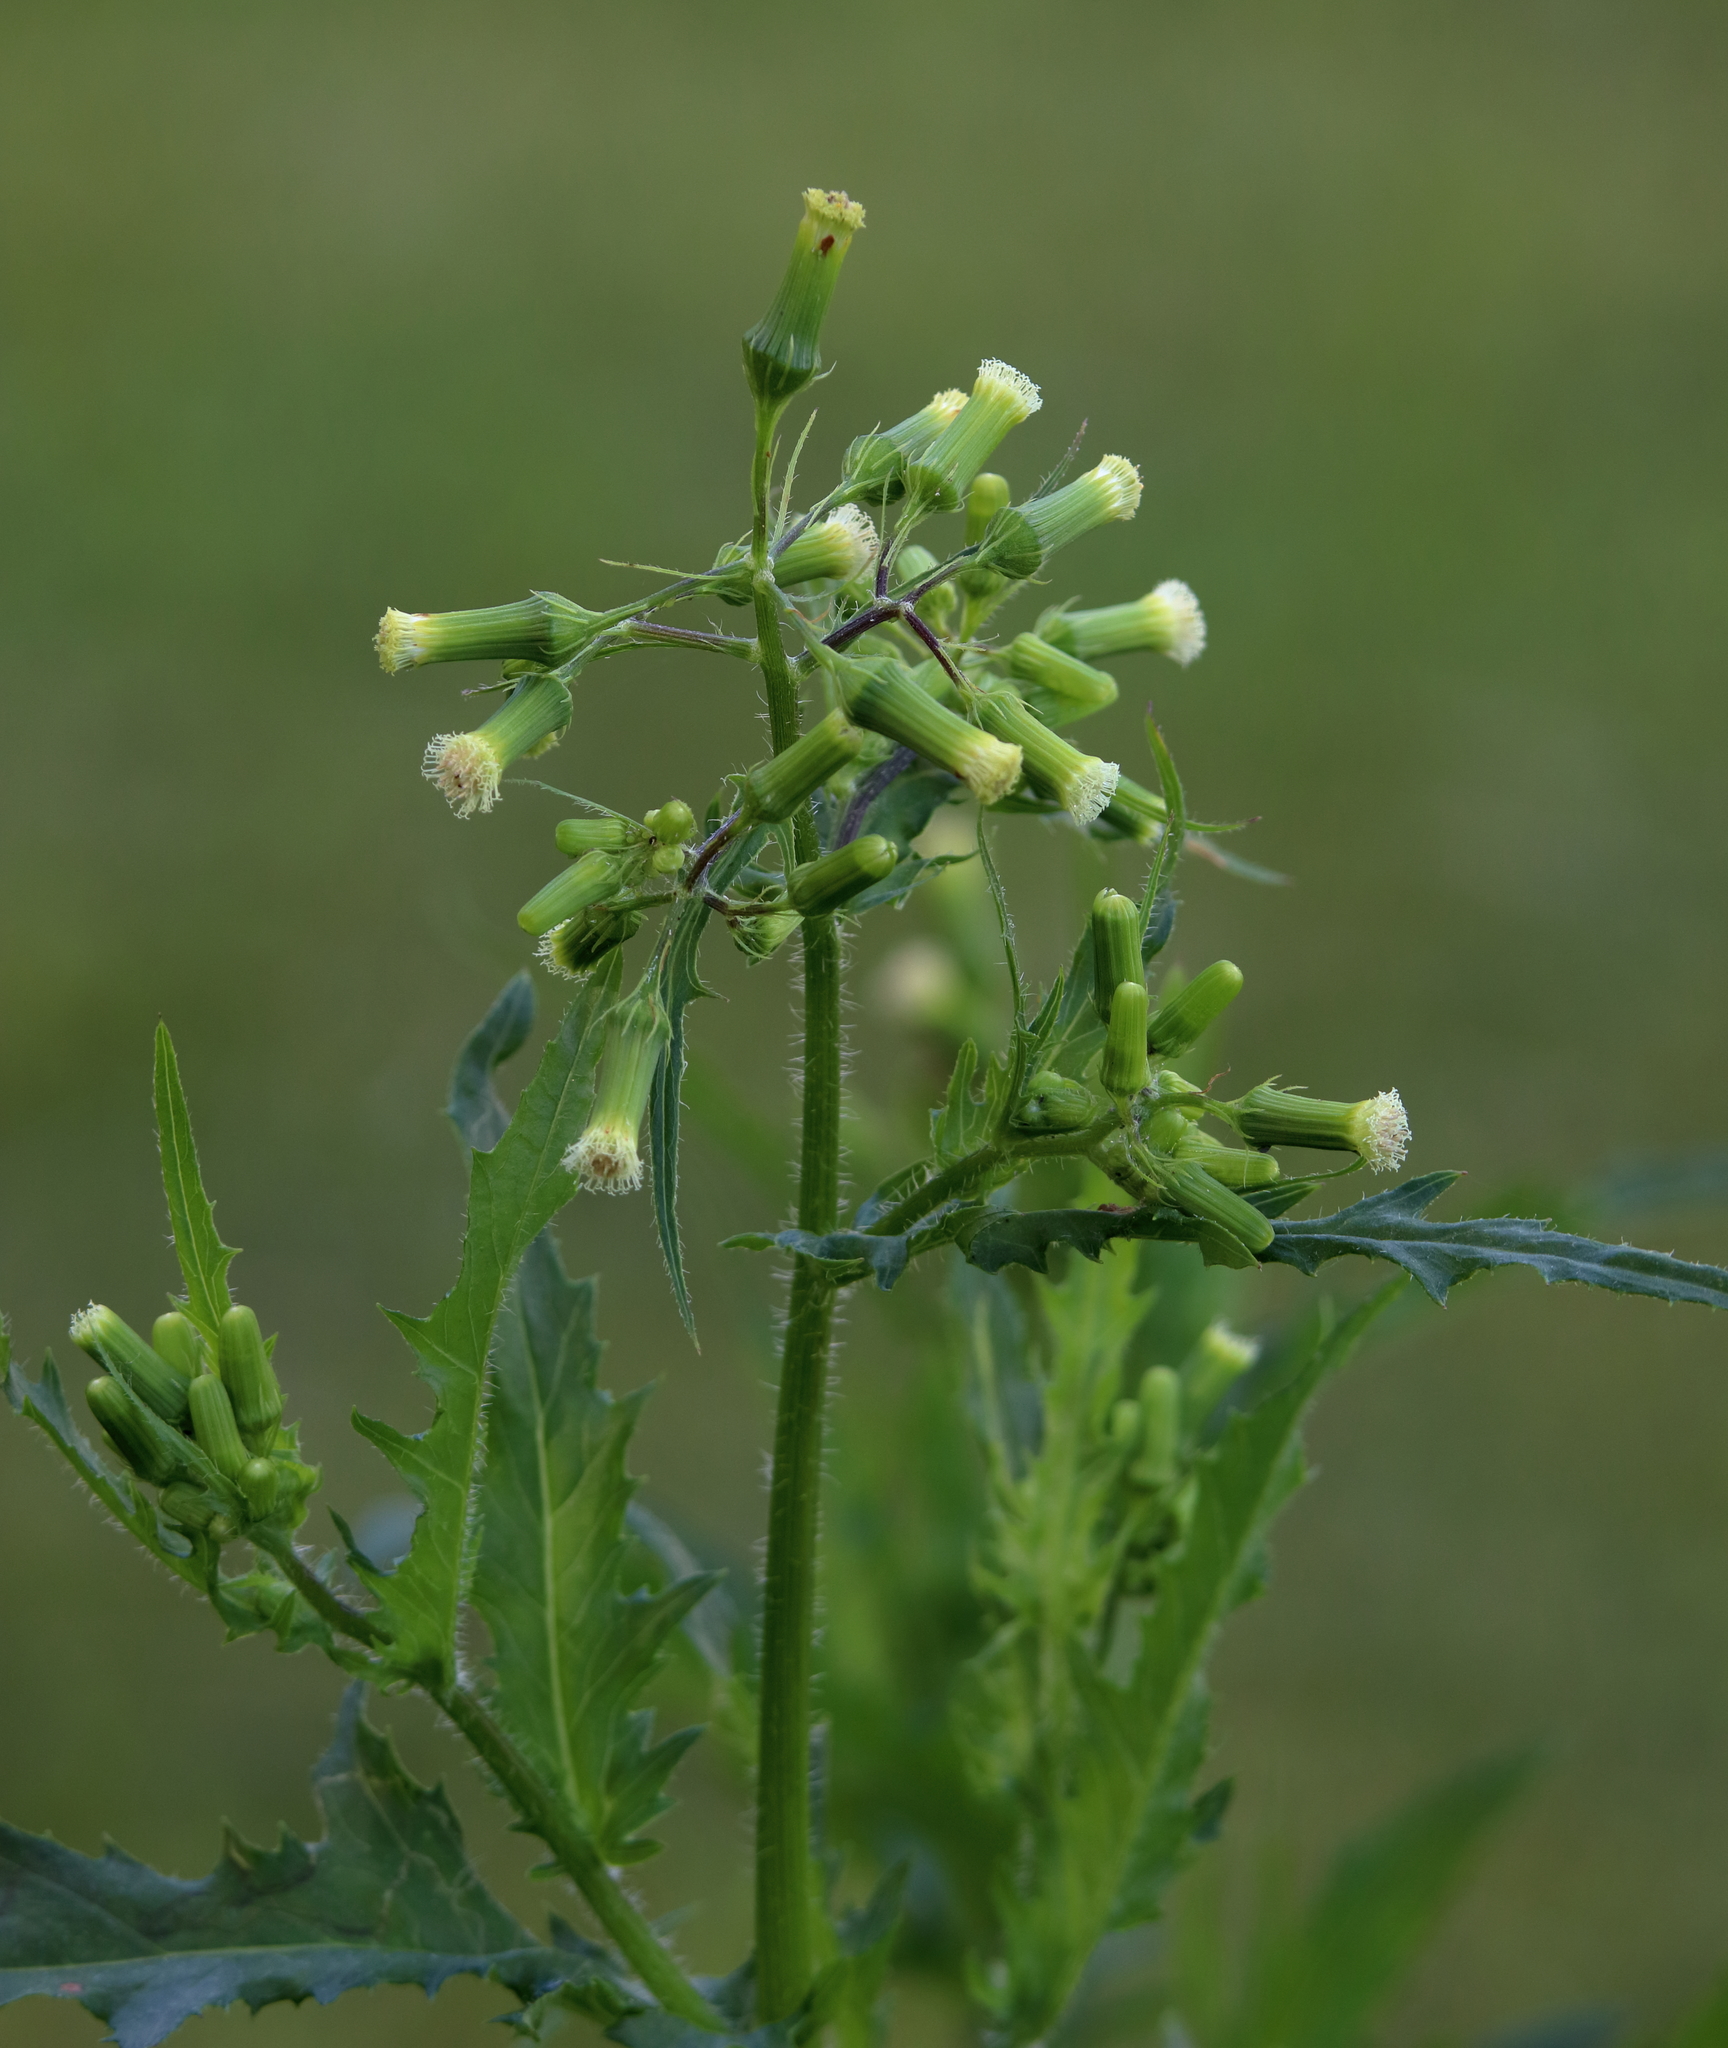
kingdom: Plantae
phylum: Tracheophyta
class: Magnoliopsida
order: Asterales
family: Asteraceae
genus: Erechtites
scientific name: Erechtites hieraciifolius
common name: American burnweed
